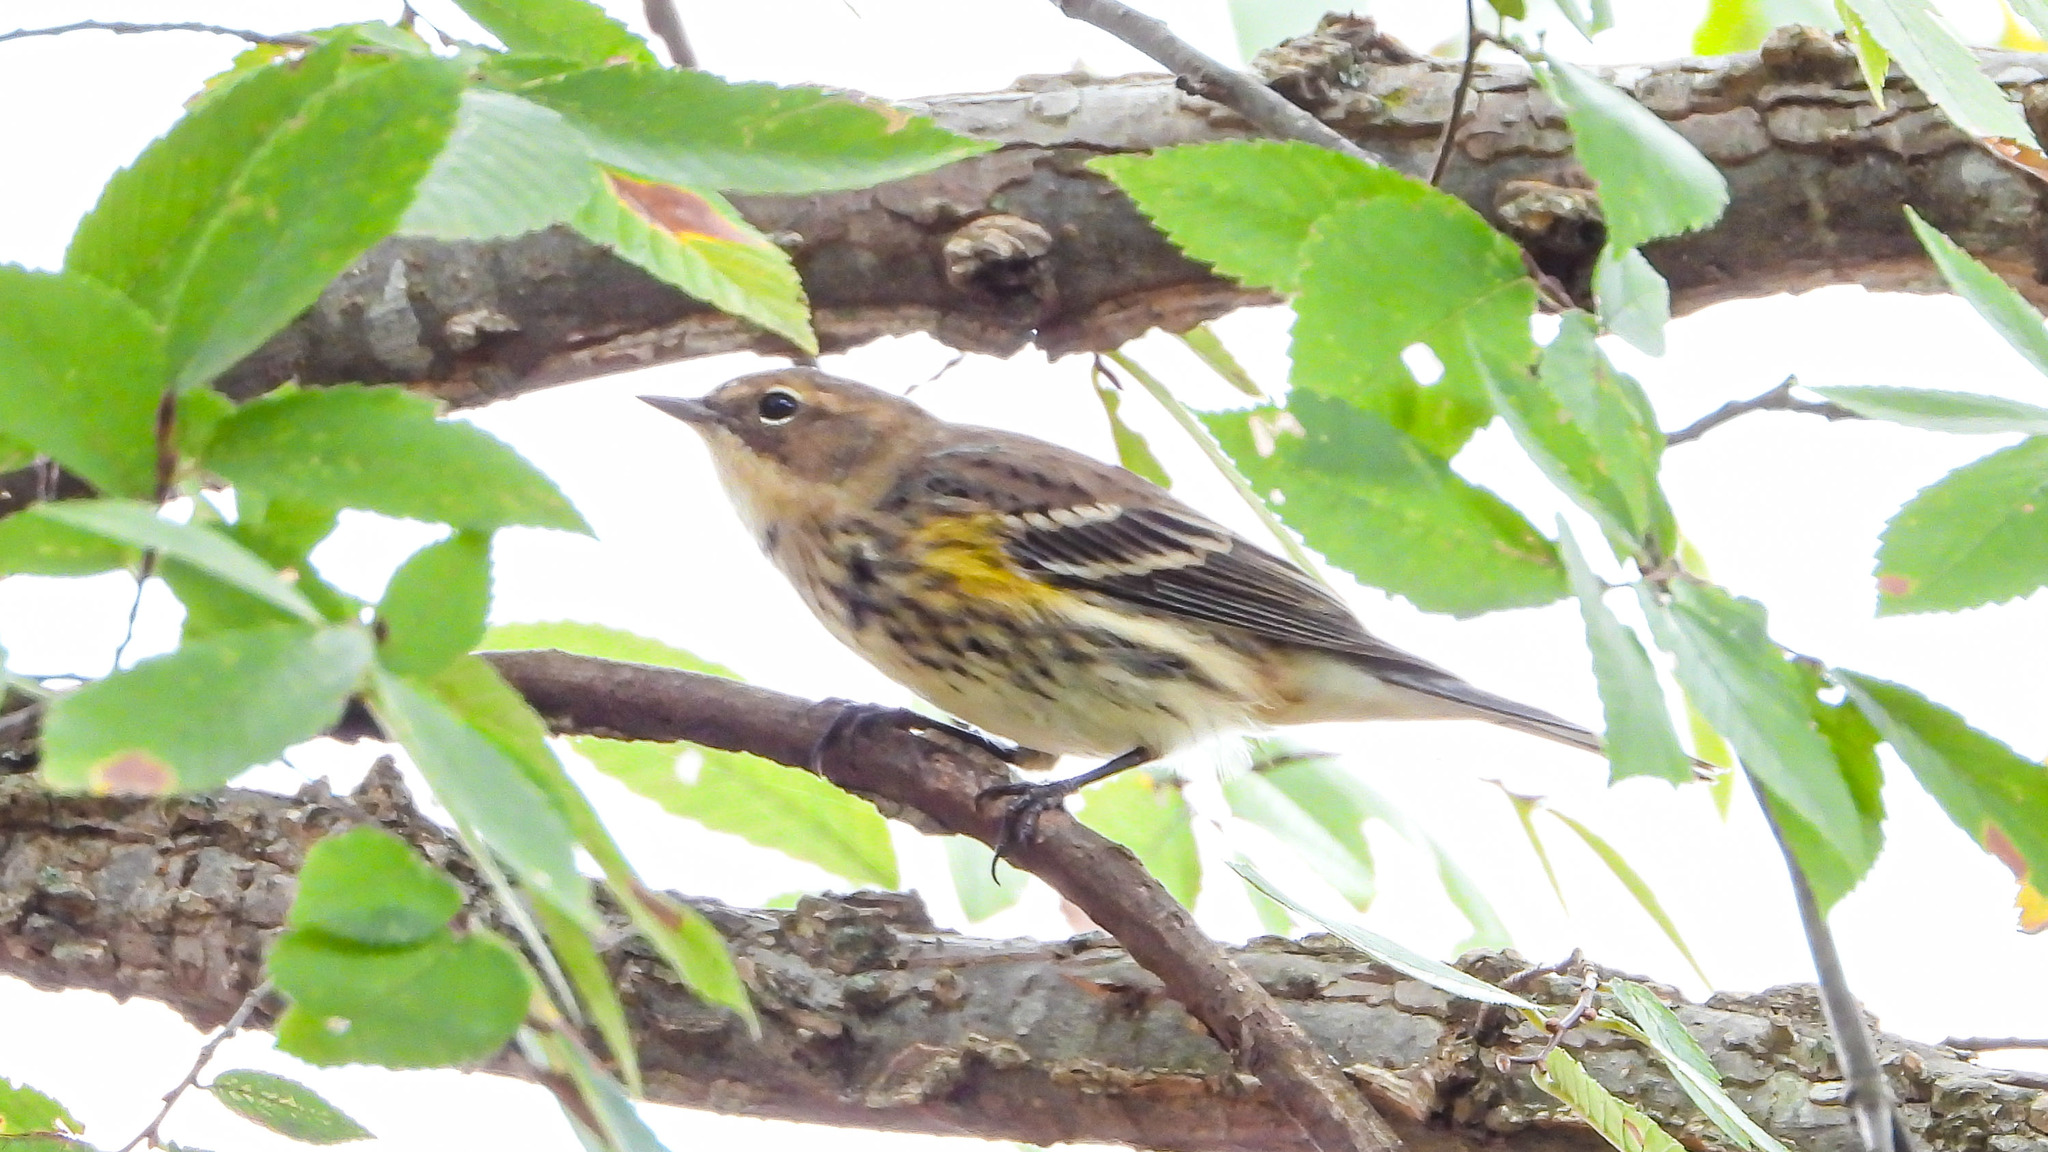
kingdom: Animalia
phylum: Chordata
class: Aves
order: Passeriformes
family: Parulidae
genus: Setophaga
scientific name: Setophaga coronata
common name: Myrtle warbler
